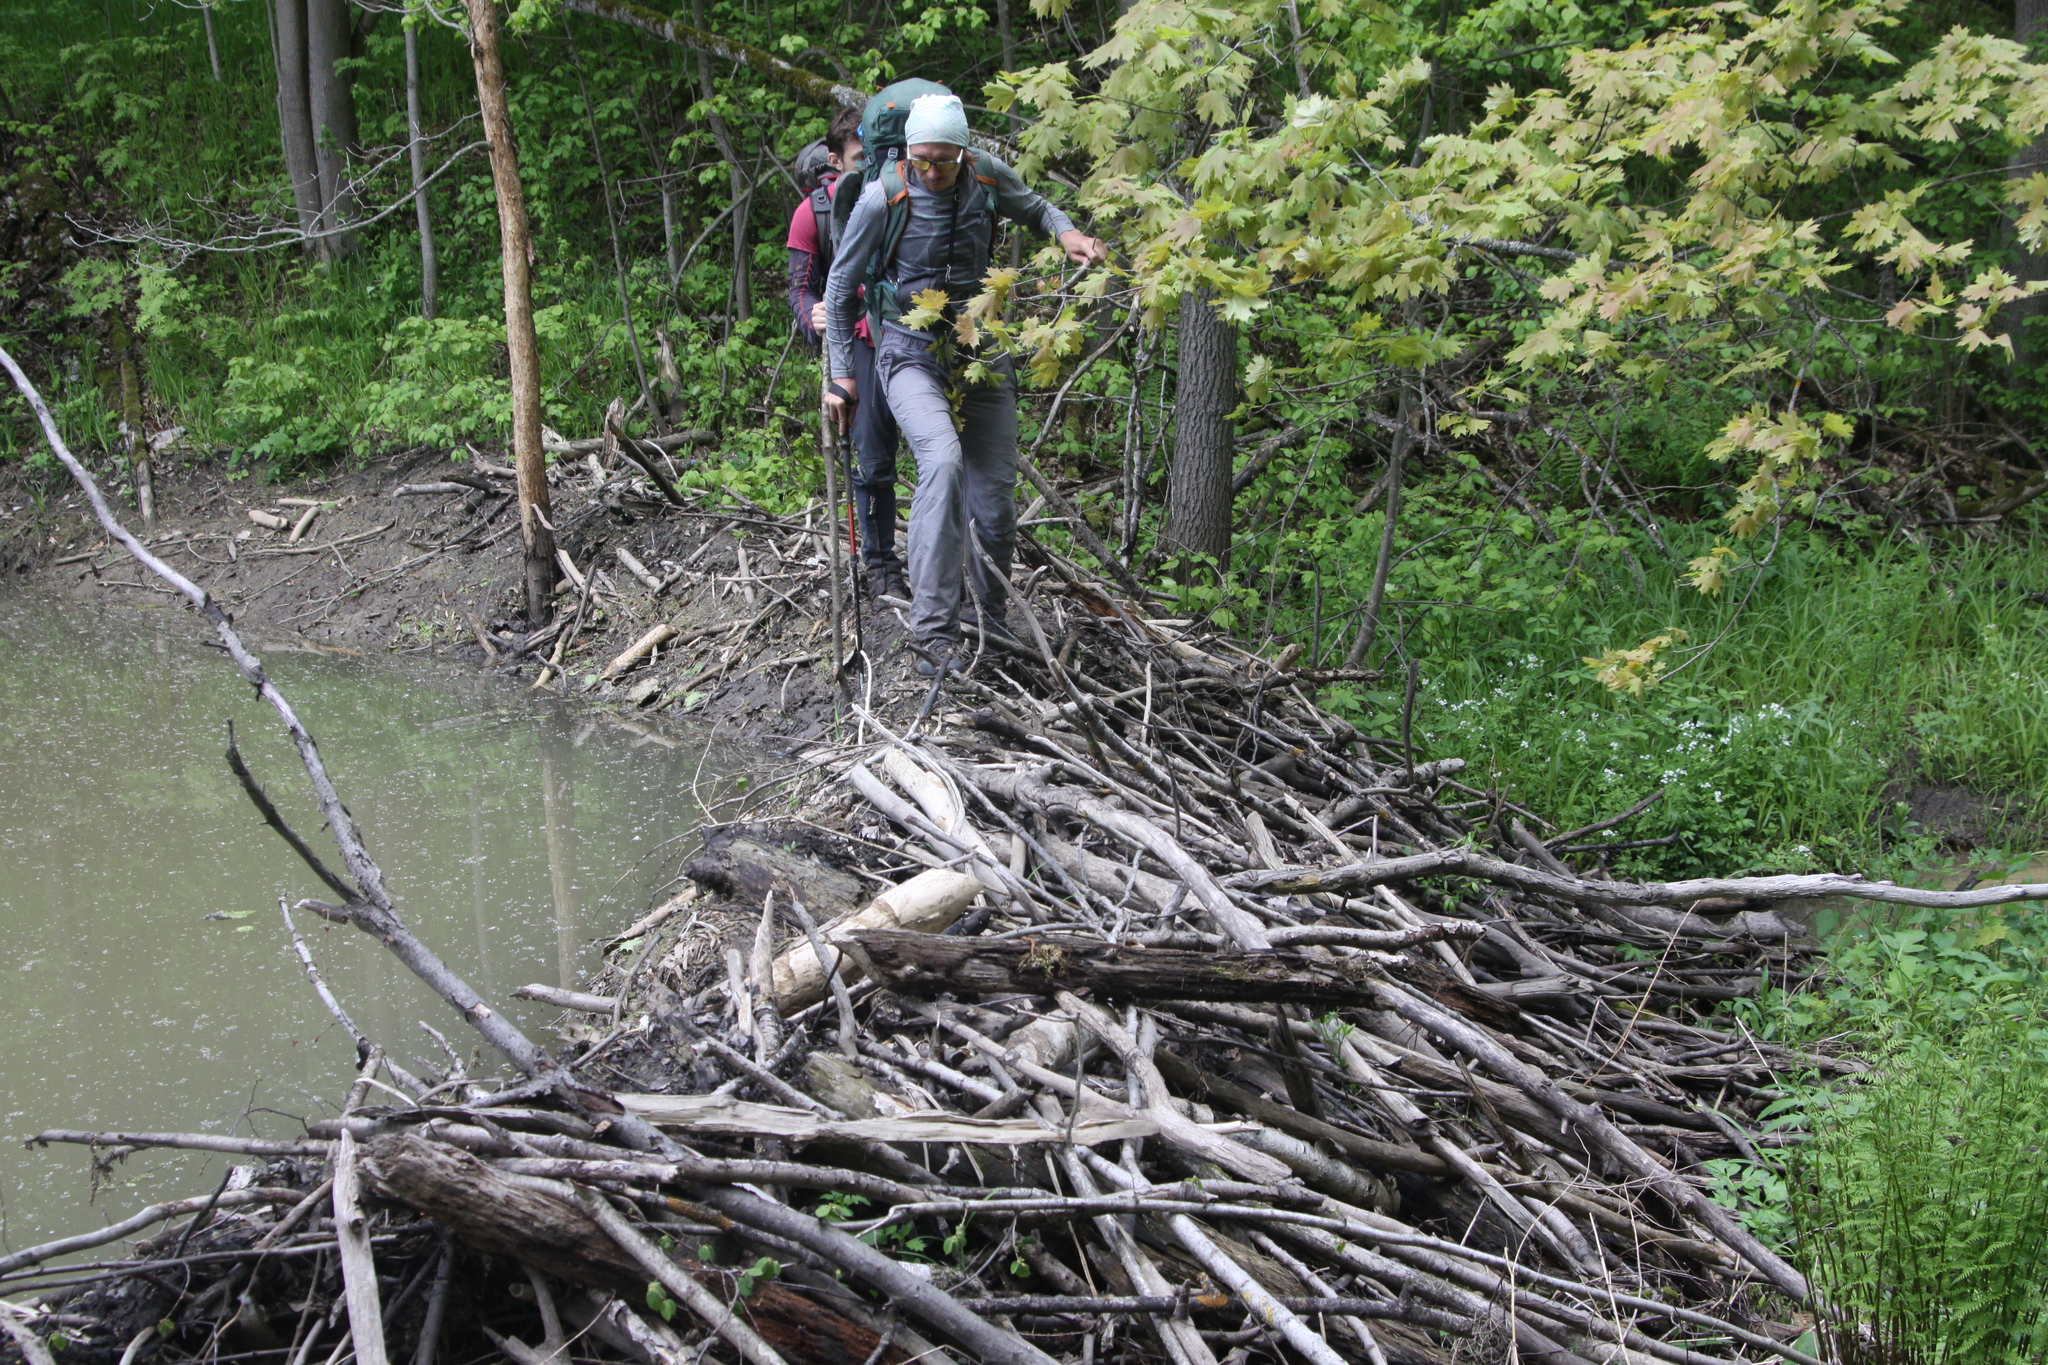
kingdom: Animalia
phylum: Chordata
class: Mammalia
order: Rodentia
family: Castoridae
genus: Castor
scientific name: Castor fiber
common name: Eurasian beaver
